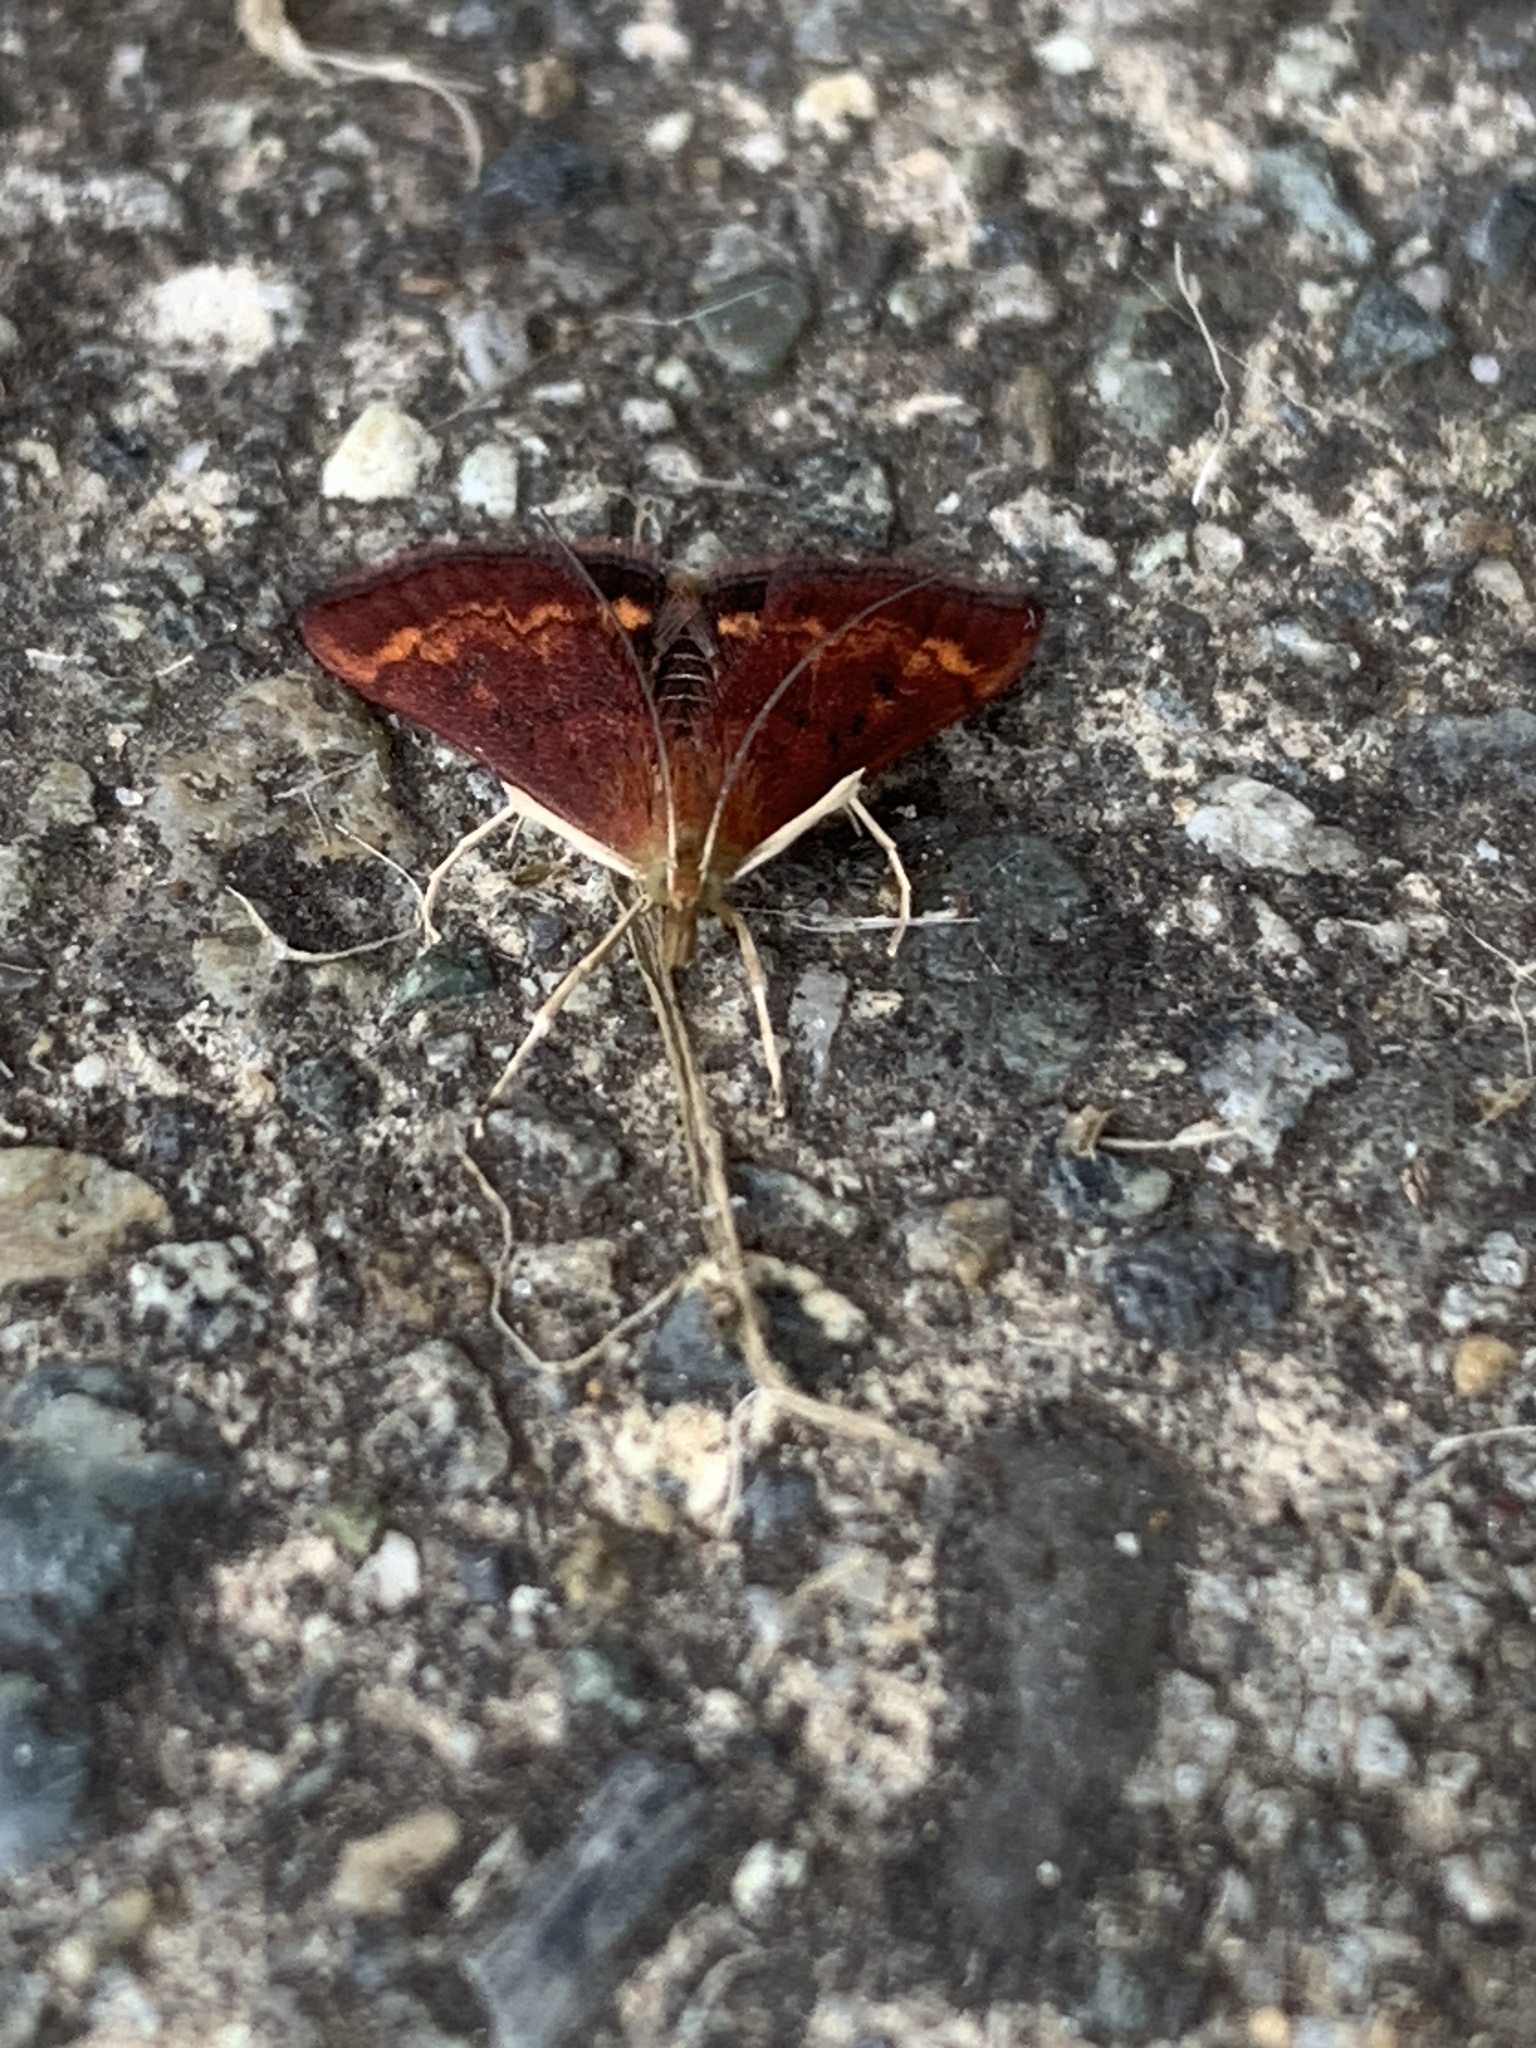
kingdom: Animalia
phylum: Arthropoda
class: Insecta
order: Lepidoptera
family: Crambidae
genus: Pyrausta
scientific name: Pyrausta californicalis
